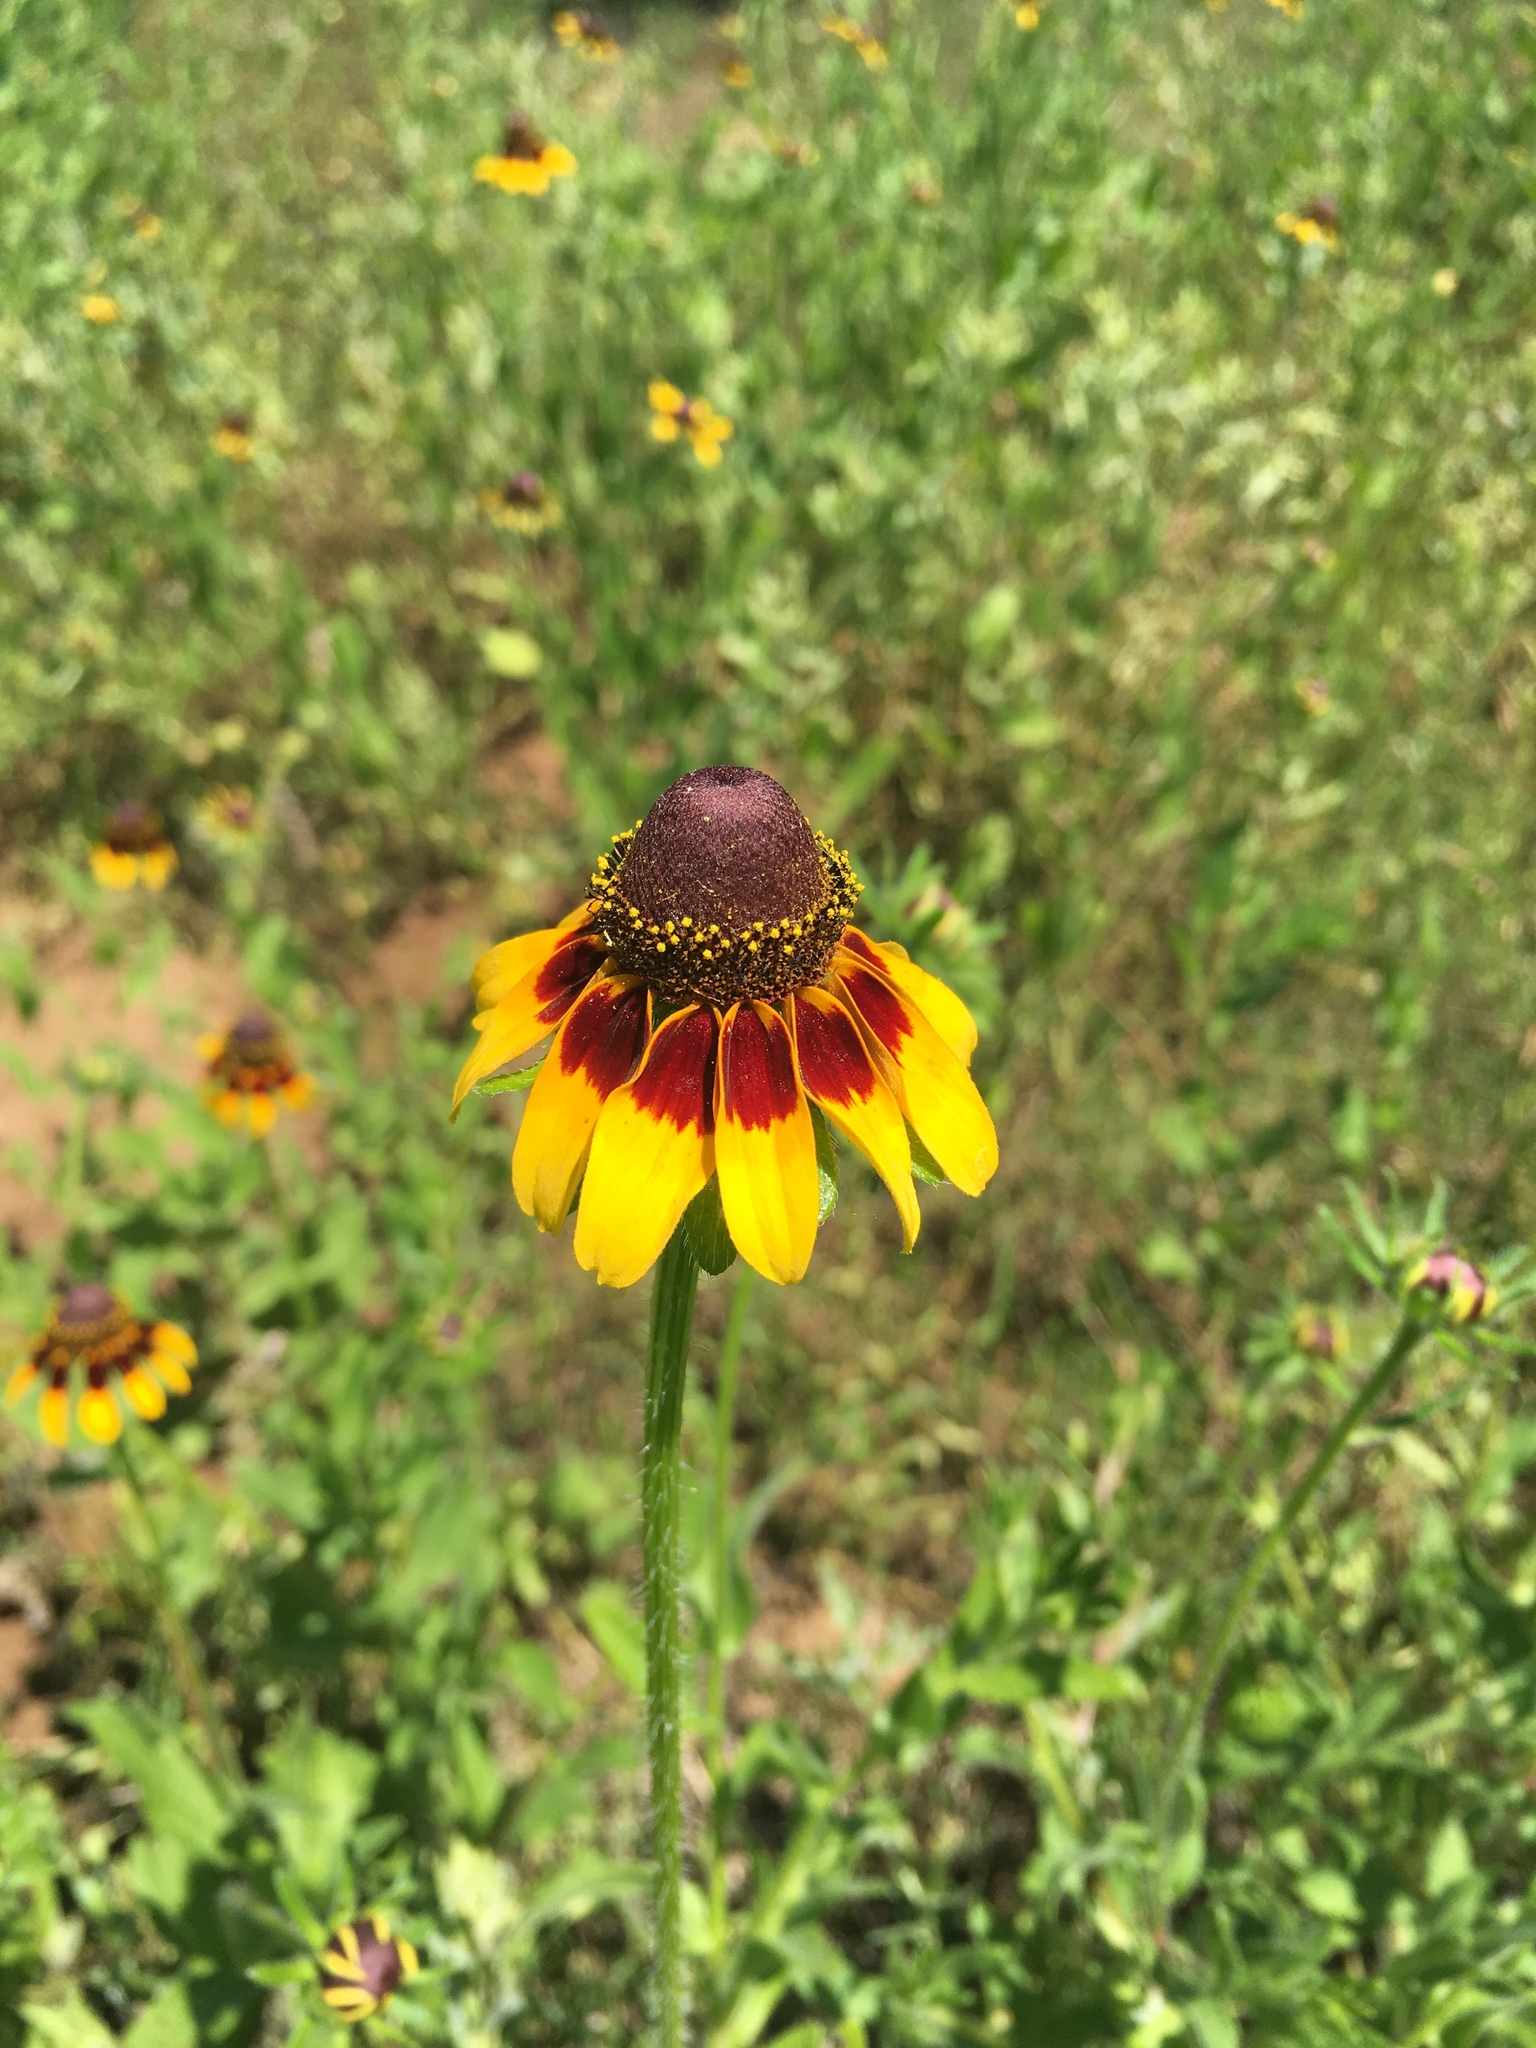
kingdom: Plantae
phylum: Tracheophyta
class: Magnoliopsida
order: Asterales
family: Asteraceae
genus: Rudbeckia
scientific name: Rudbeckia hirta
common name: Black-eyed-susan
